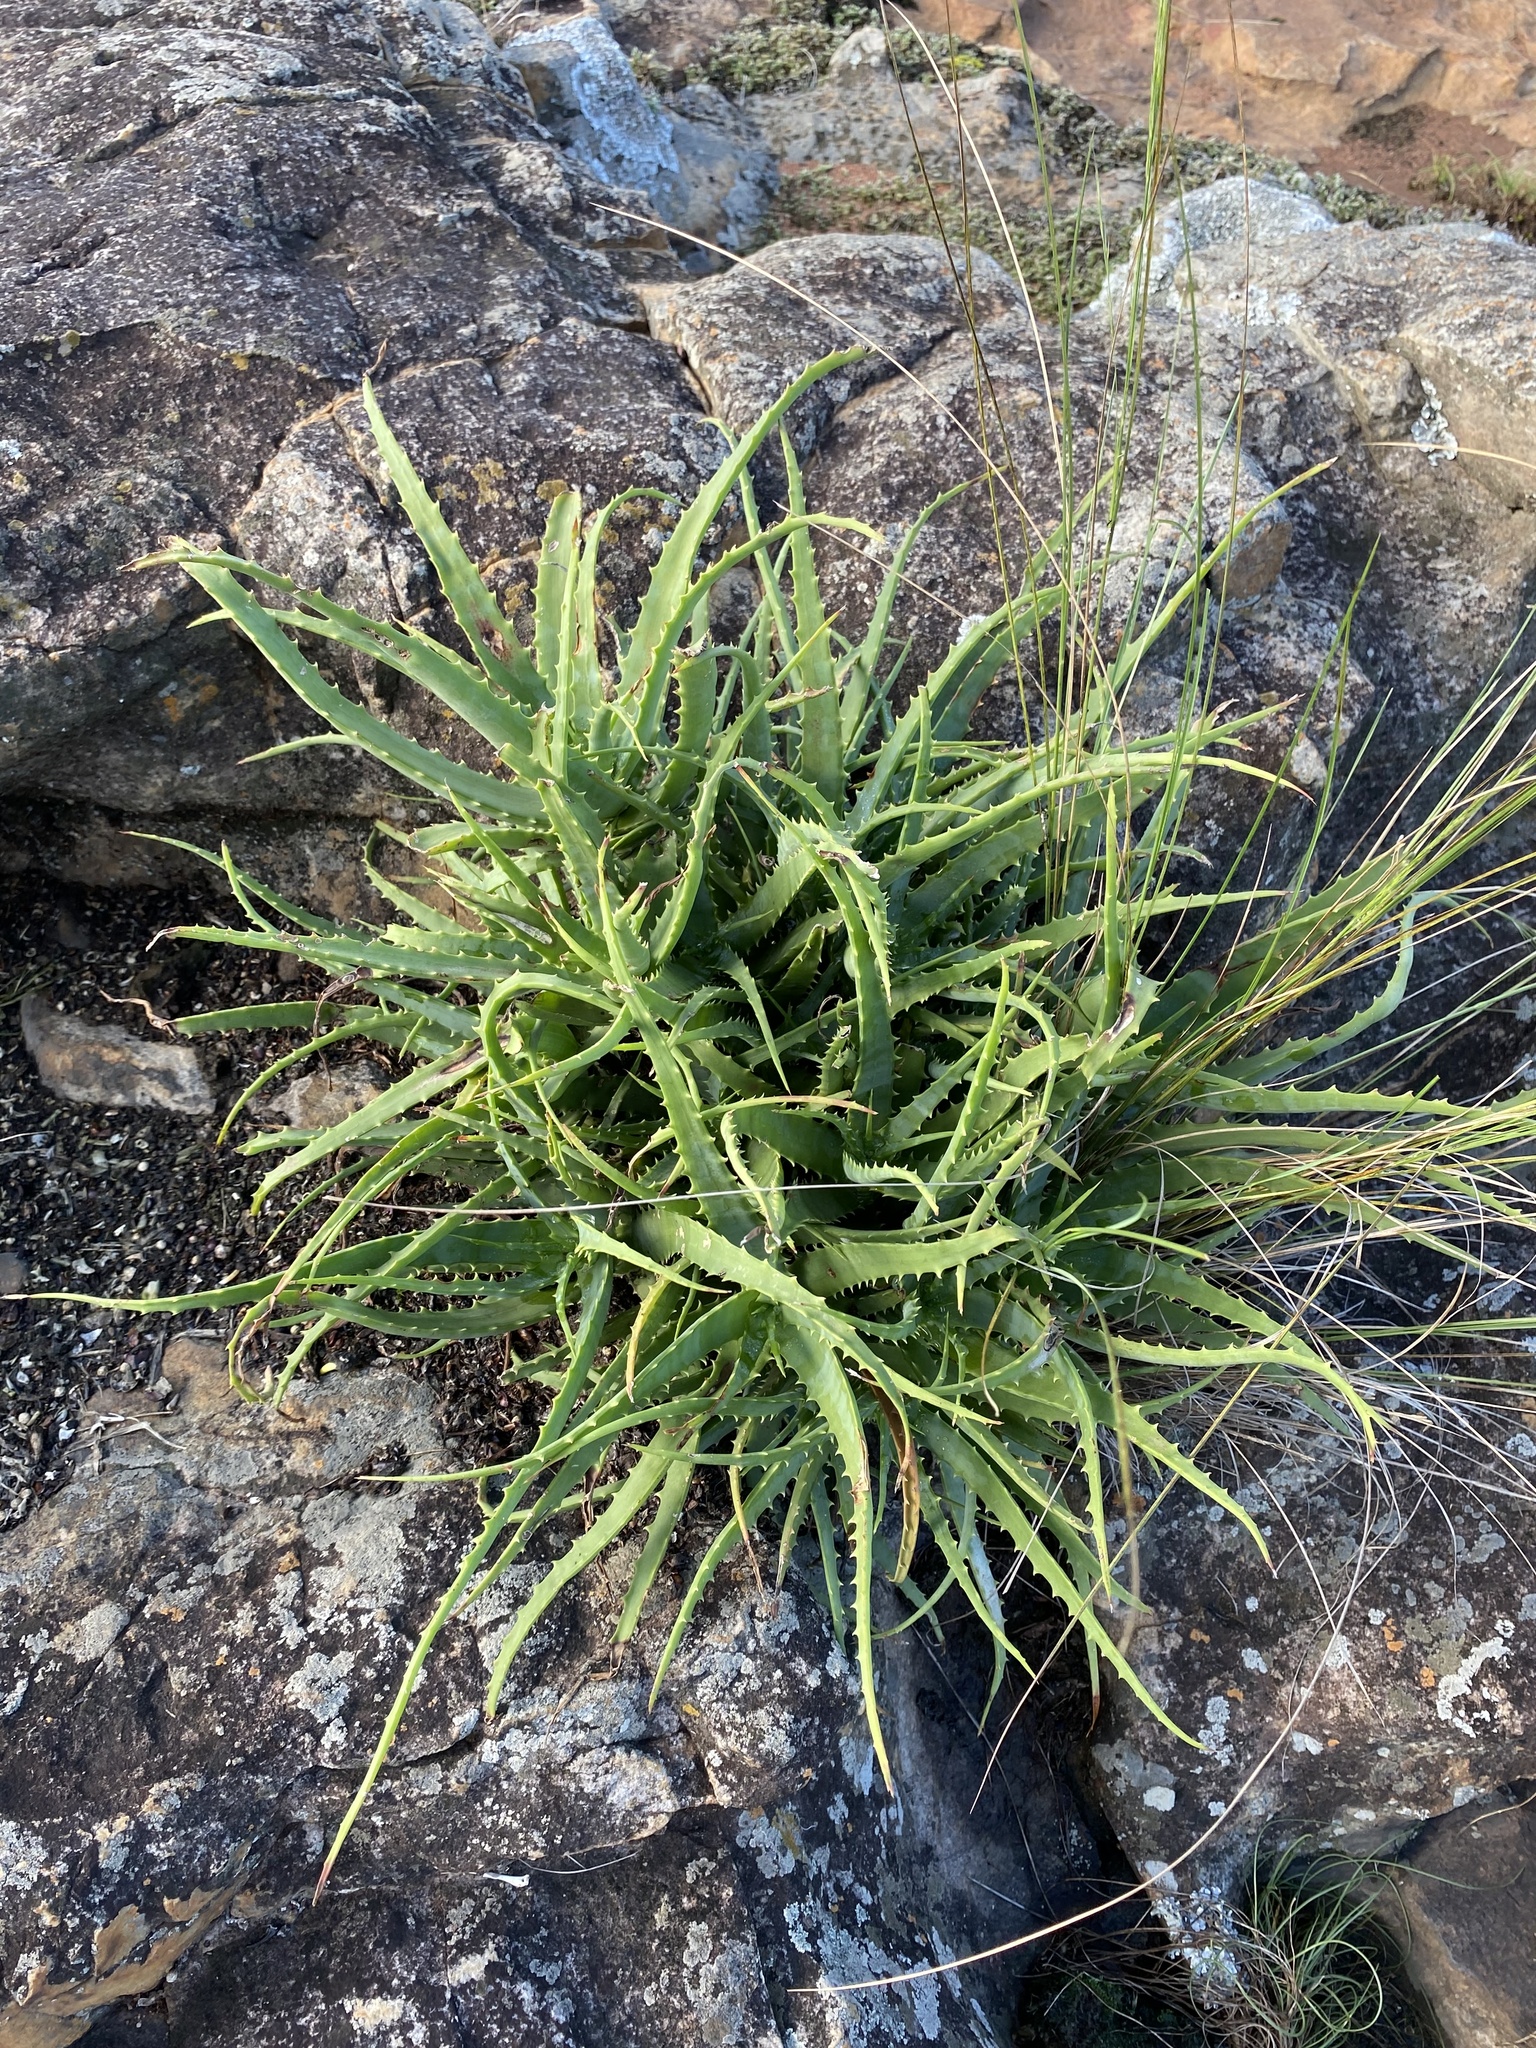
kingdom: Plantae
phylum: Tracheophyta
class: Liliopsida
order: Asparagales
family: Asphodelaceae
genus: Aloe
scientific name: Aloe arborescens
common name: Candelabra aloe
